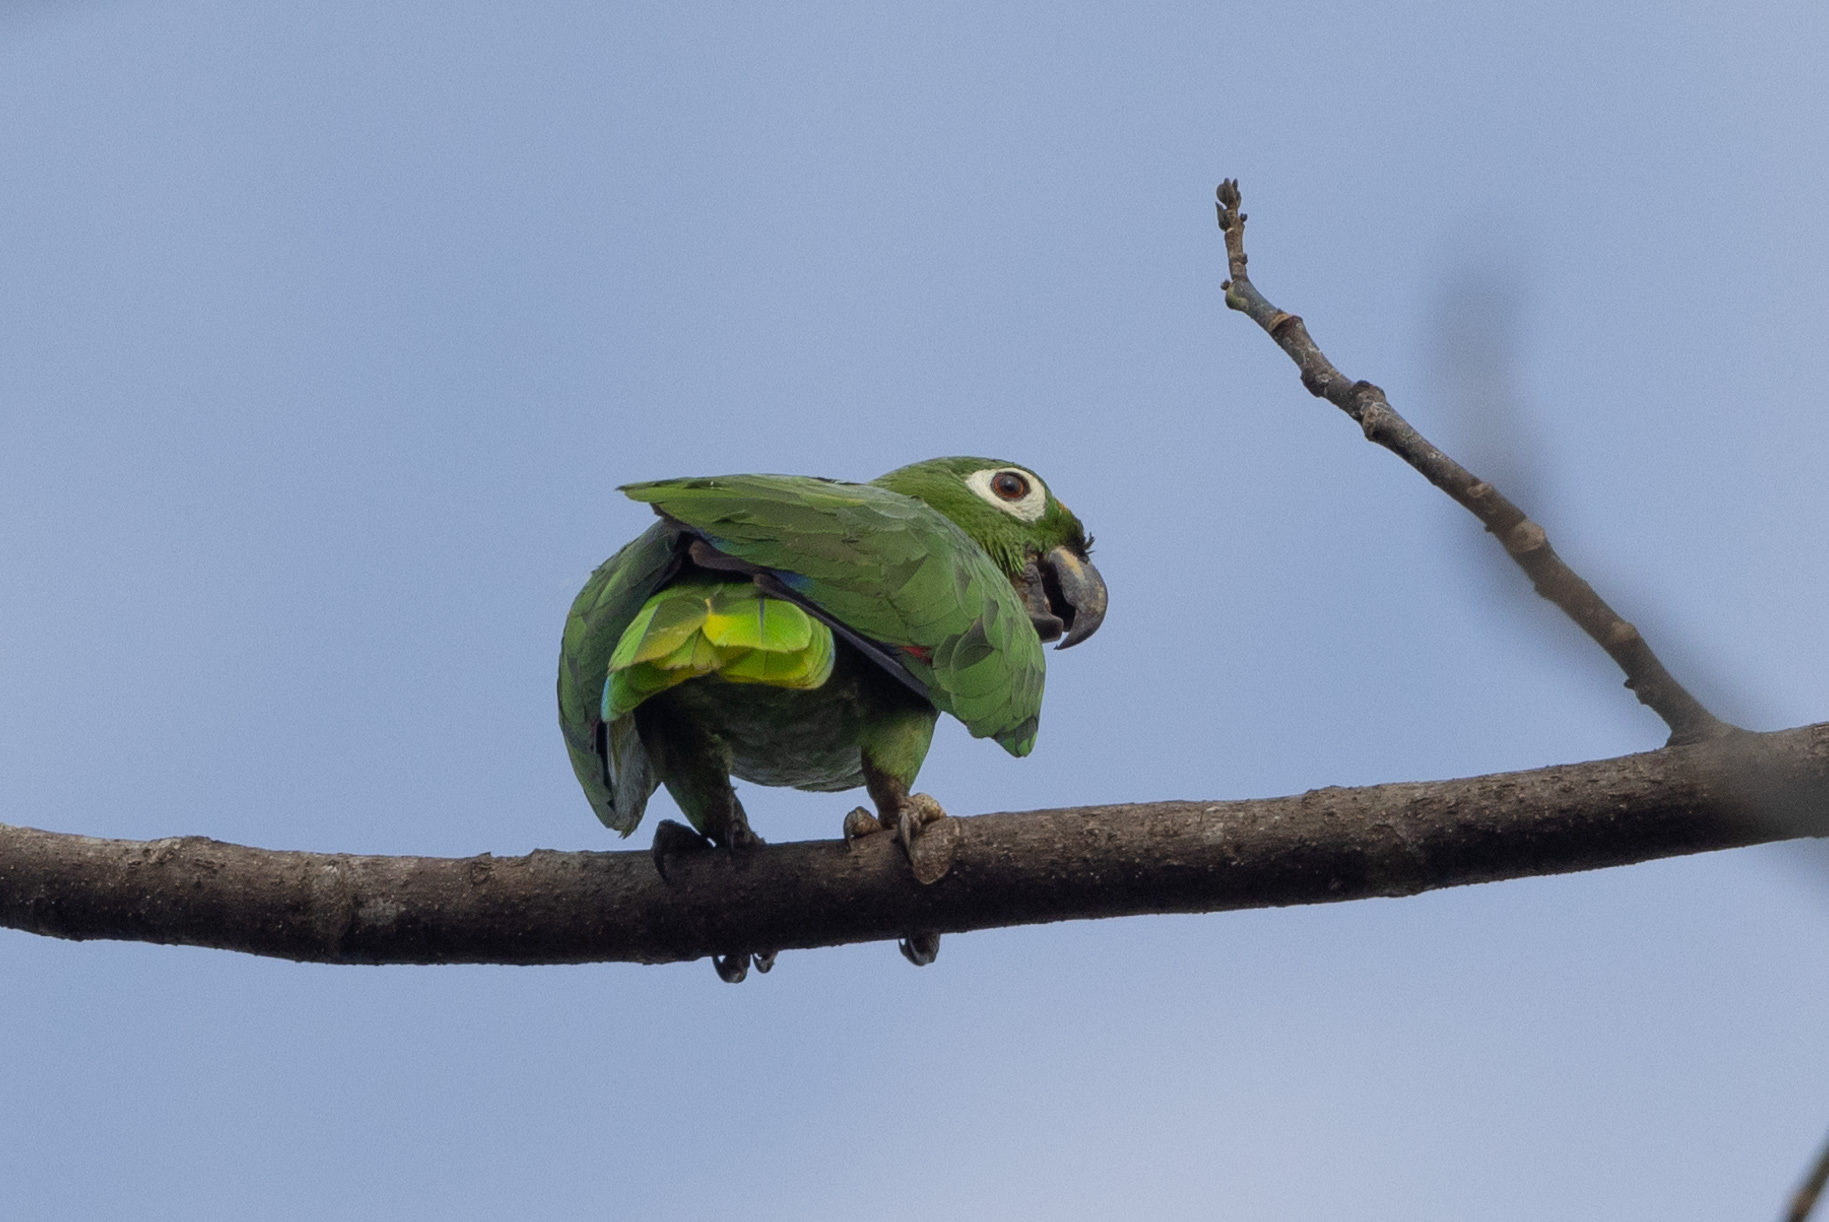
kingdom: Animalia
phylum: Chordata
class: Aves
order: Psittaciformes
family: Psittacidae
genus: Amazona
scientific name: Amazona farinosa
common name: Mealy parrot
